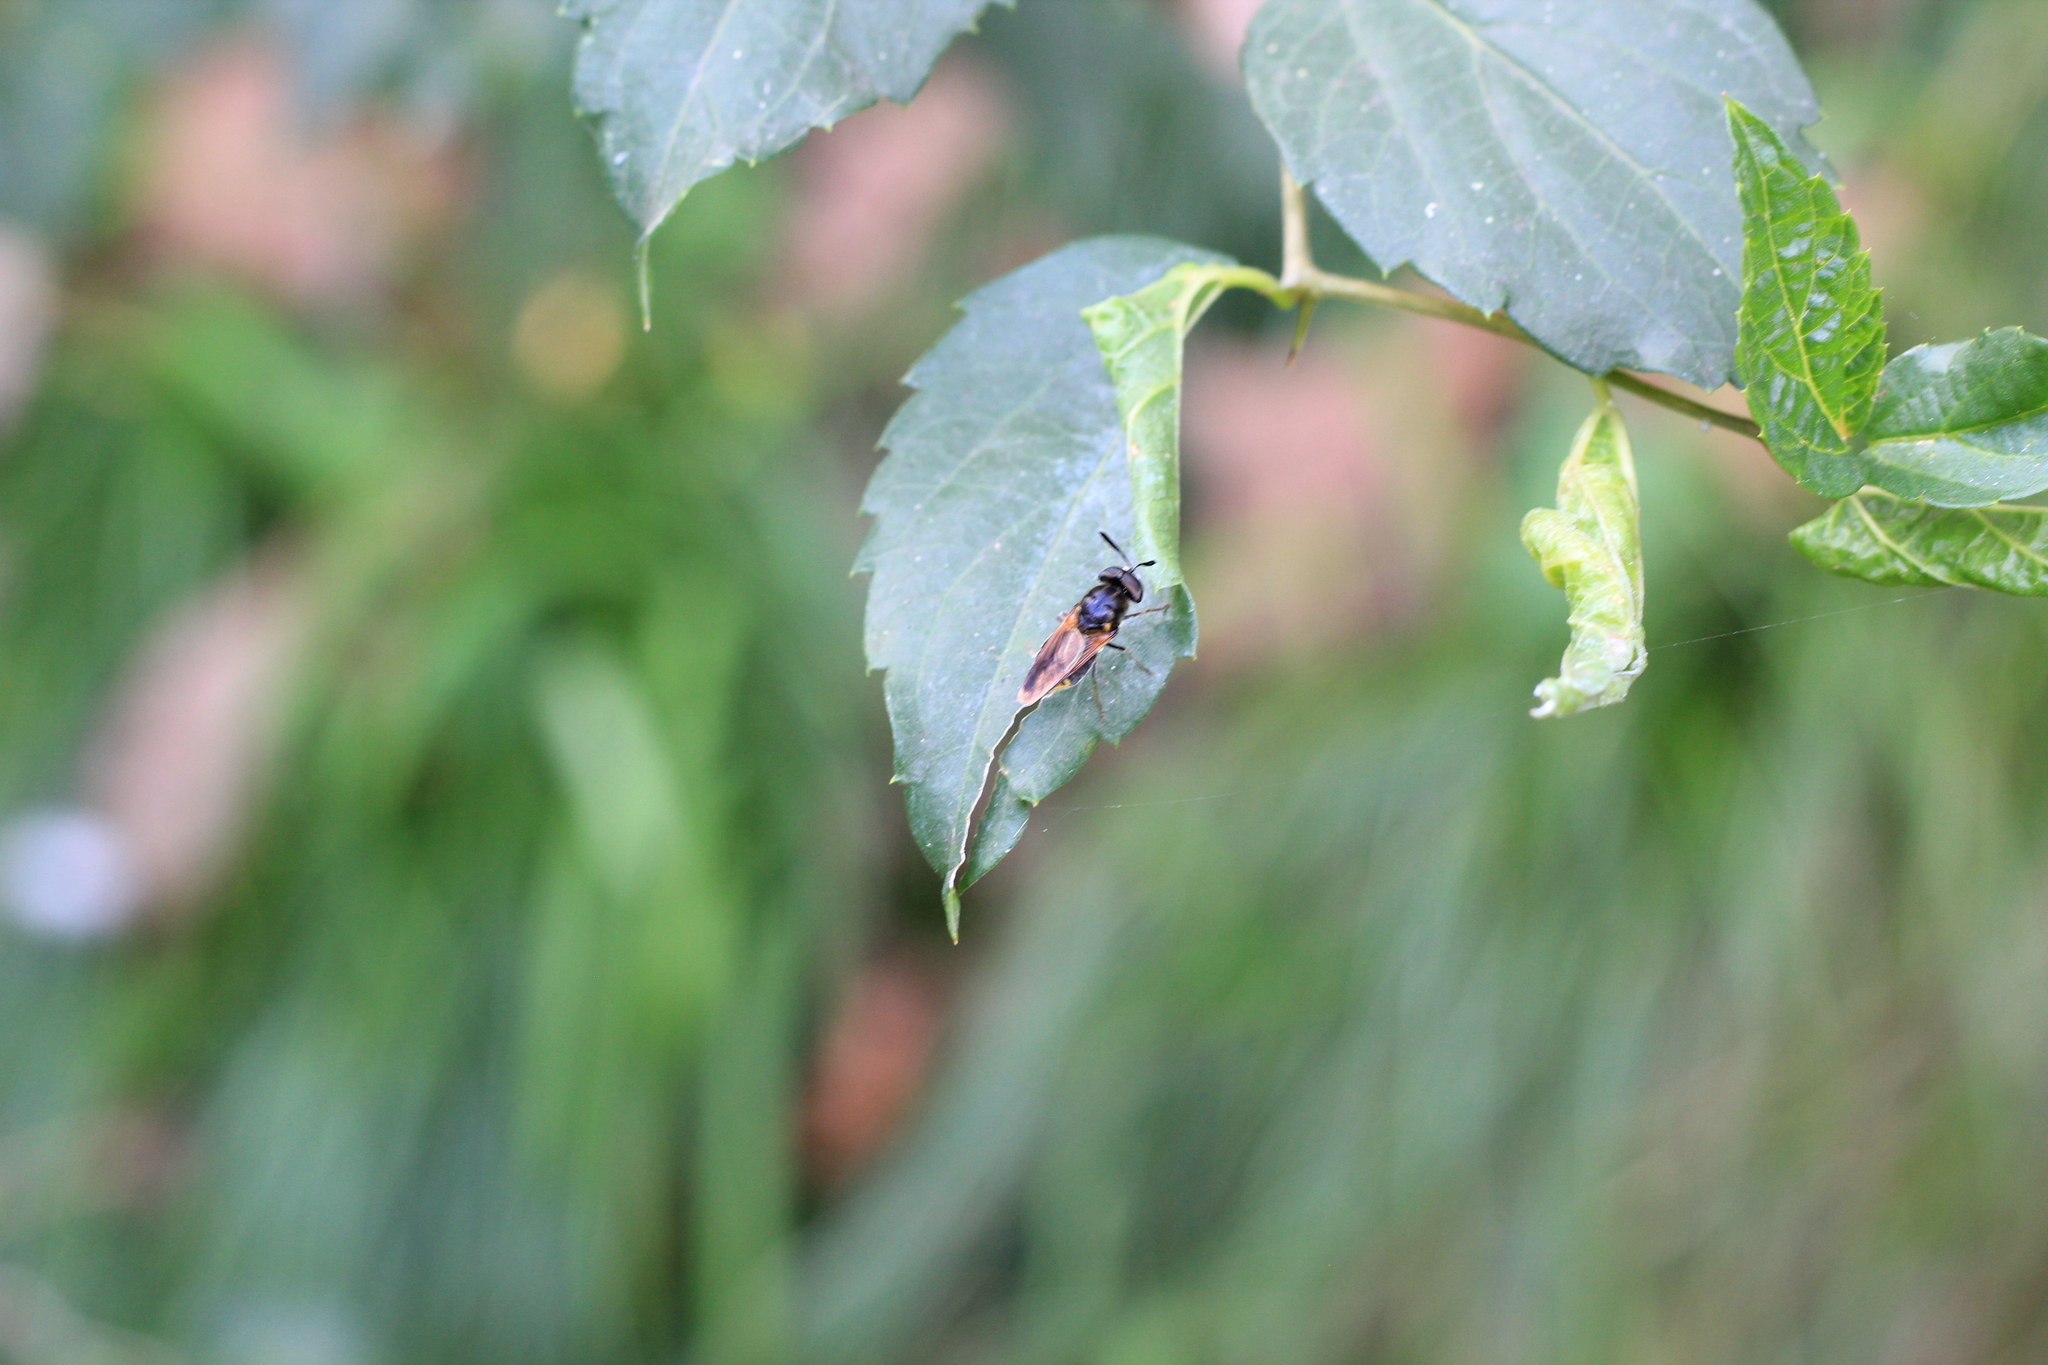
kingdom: Animalia
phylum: Arthropoda
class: Insecta
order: Diptera
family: Stratiomyidae
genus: Hoplitimyia
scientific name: Hoplitimyia
